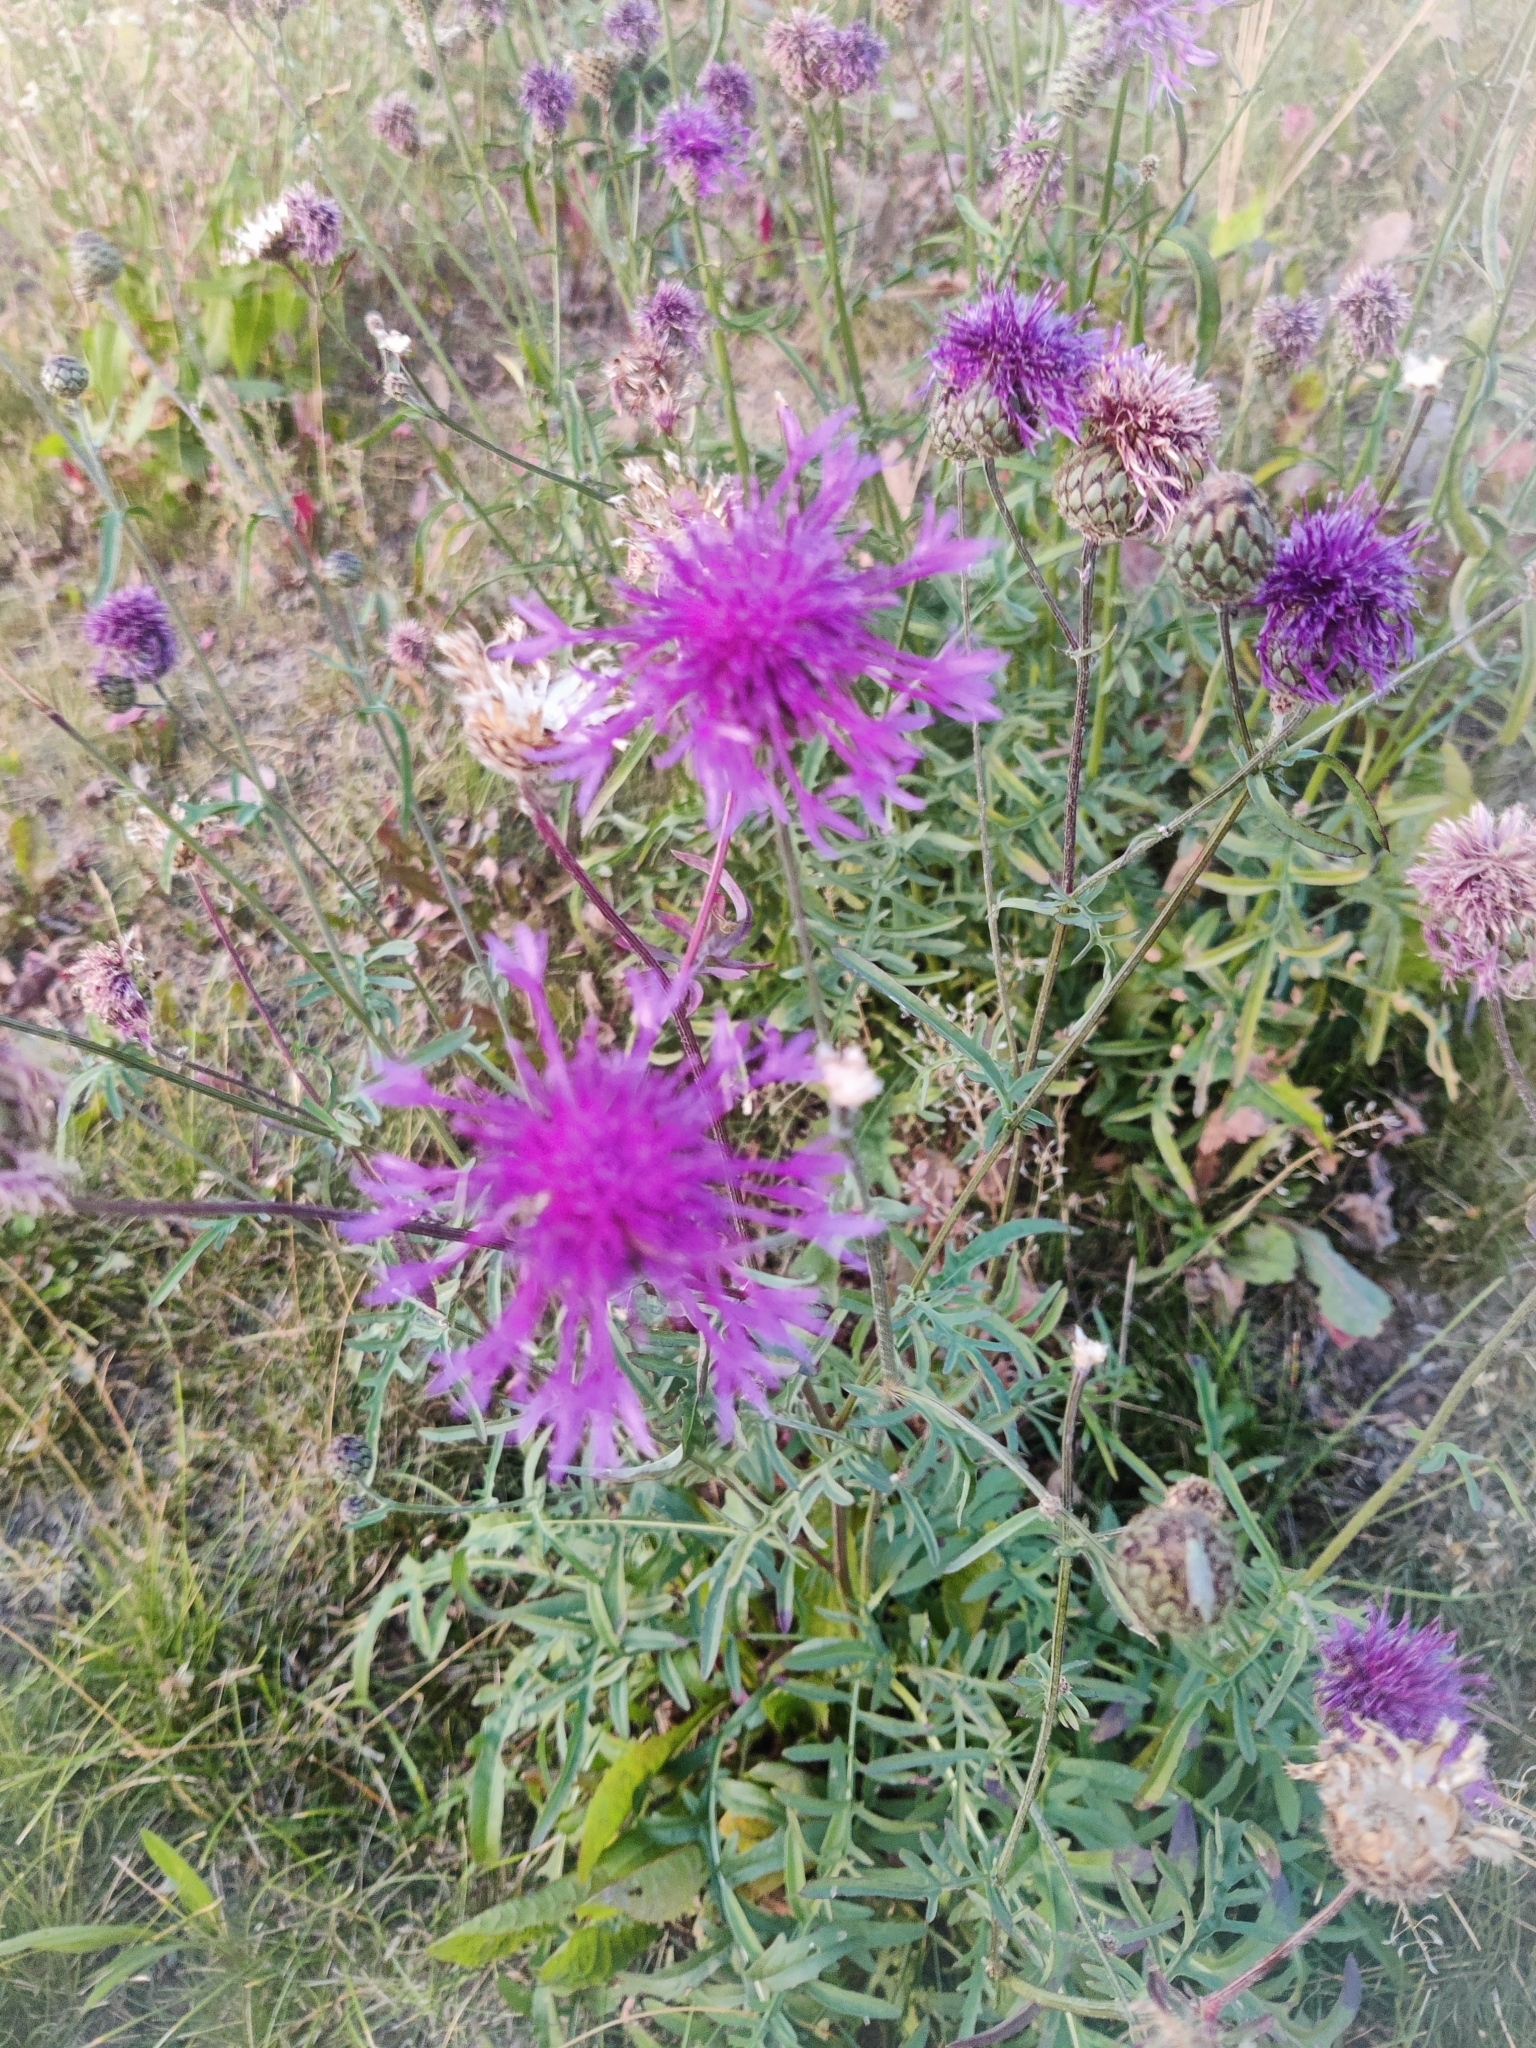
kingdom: Plantae
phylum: Tracheophyta
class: Magnoliopsida
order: Asterales
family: Asteraceae
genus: Centaurea
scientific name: Centaurea scabiosa
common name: Greater knapweed
